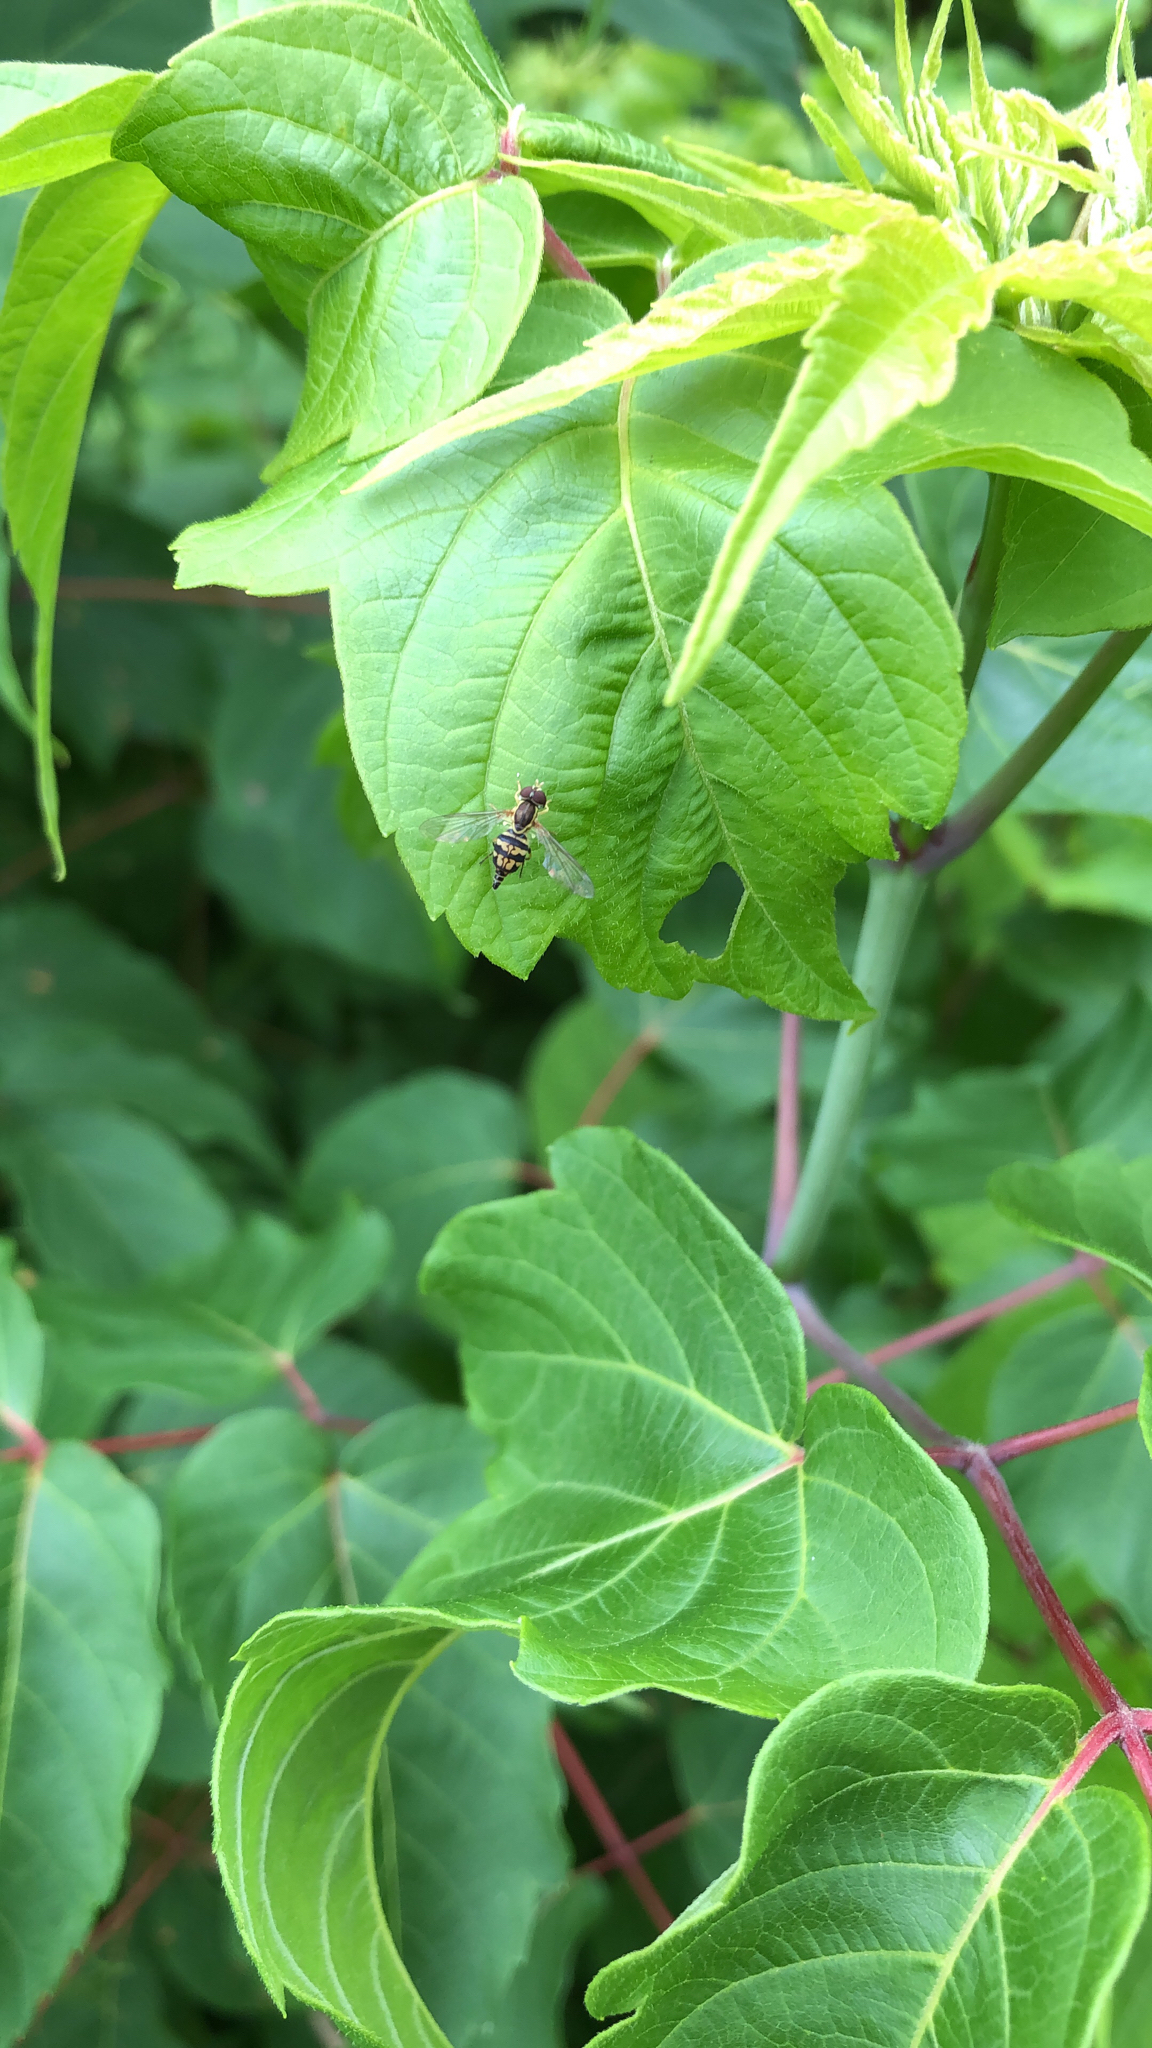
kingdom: Animalia
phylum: Arthropoda
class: Insecta
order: Diptera
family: Syrphidae
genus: Toxomerus
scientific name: Toxomerus geminatus
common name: Eastern calligrapher
